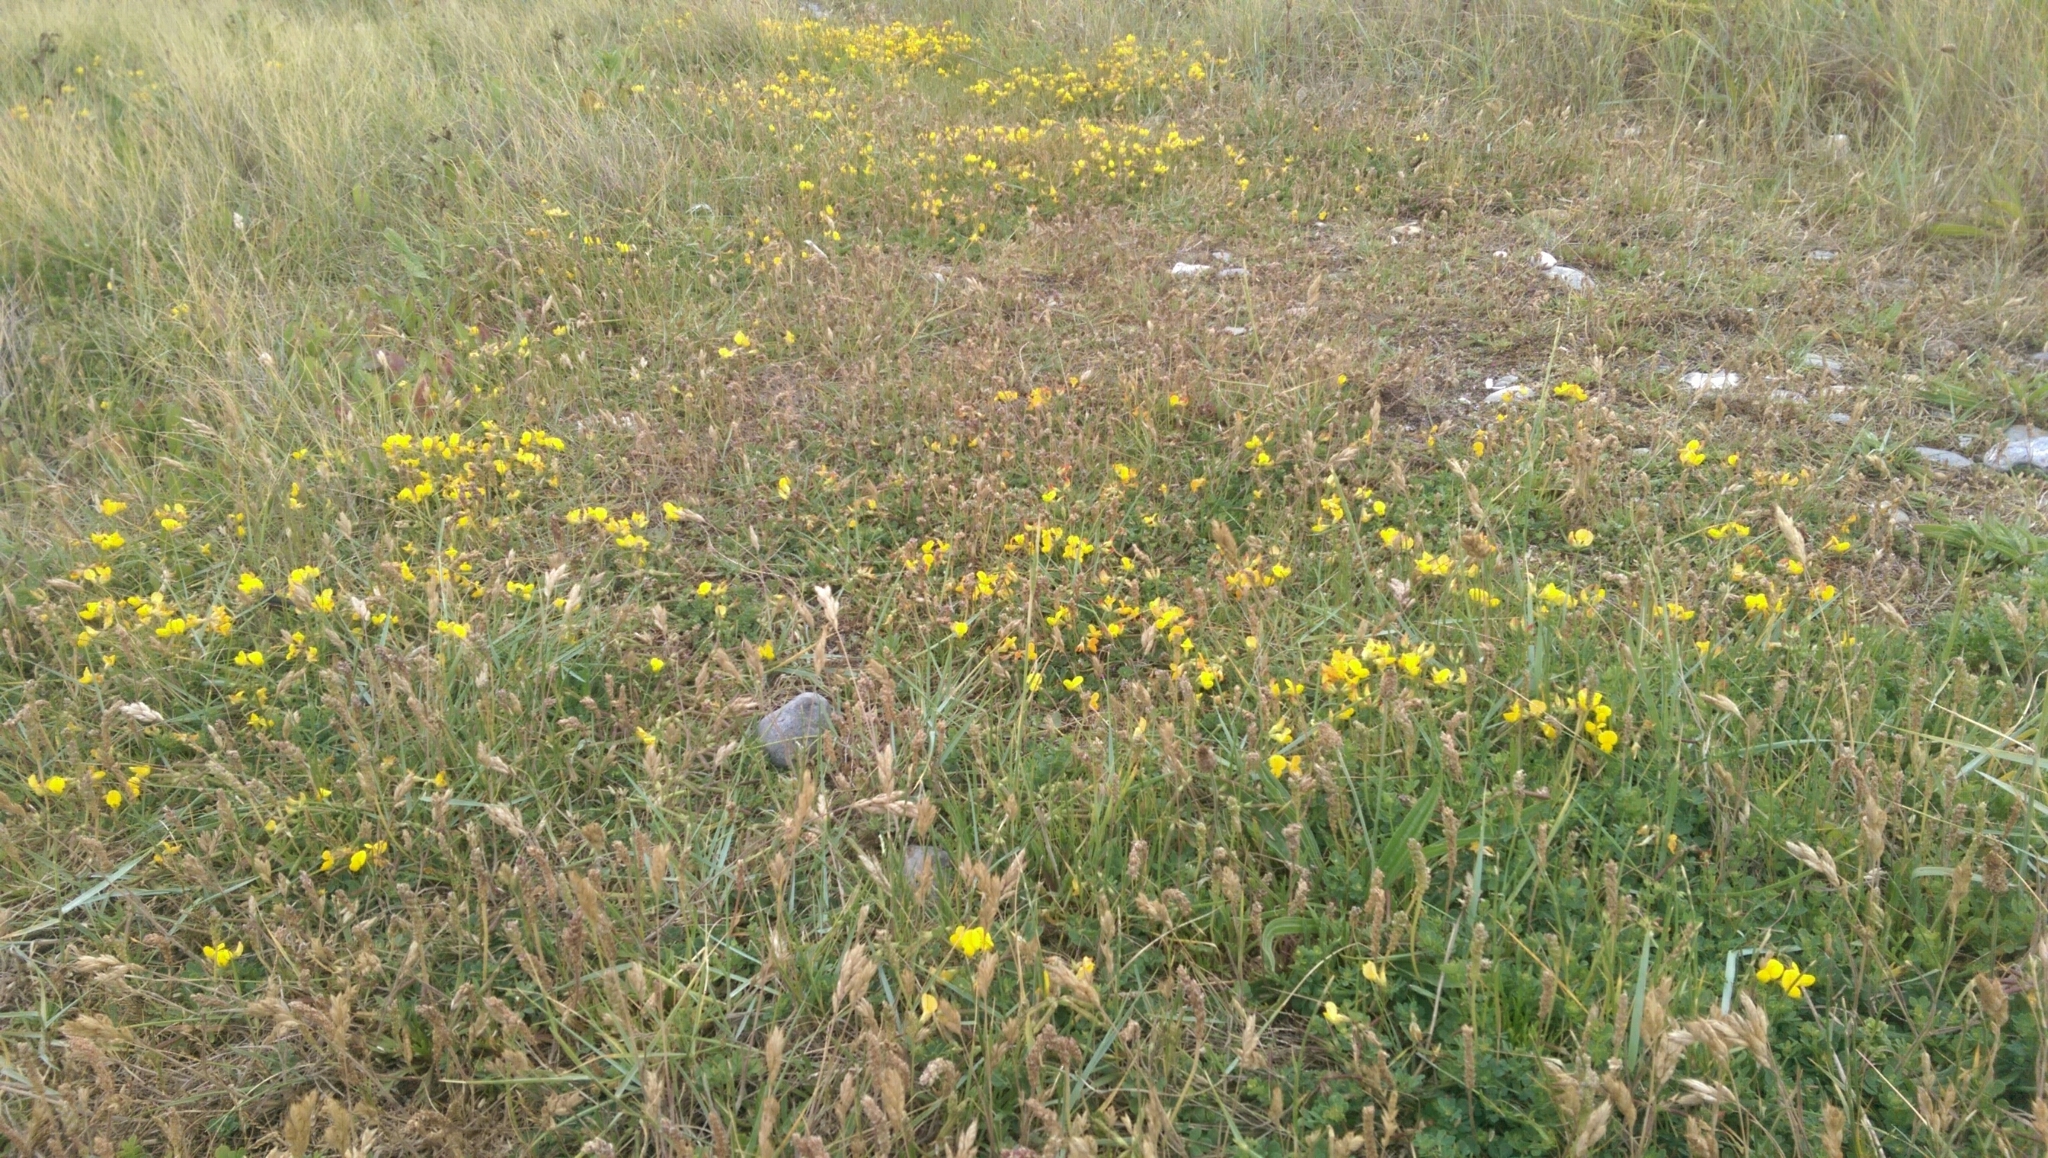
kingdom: Plantae
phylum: Tracheophyta
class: Magnoliopsida
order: Fabales
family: Fabaceae
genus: Lotus
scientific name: Lotus corniculatus
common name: Common bird's-foot-trefoil
